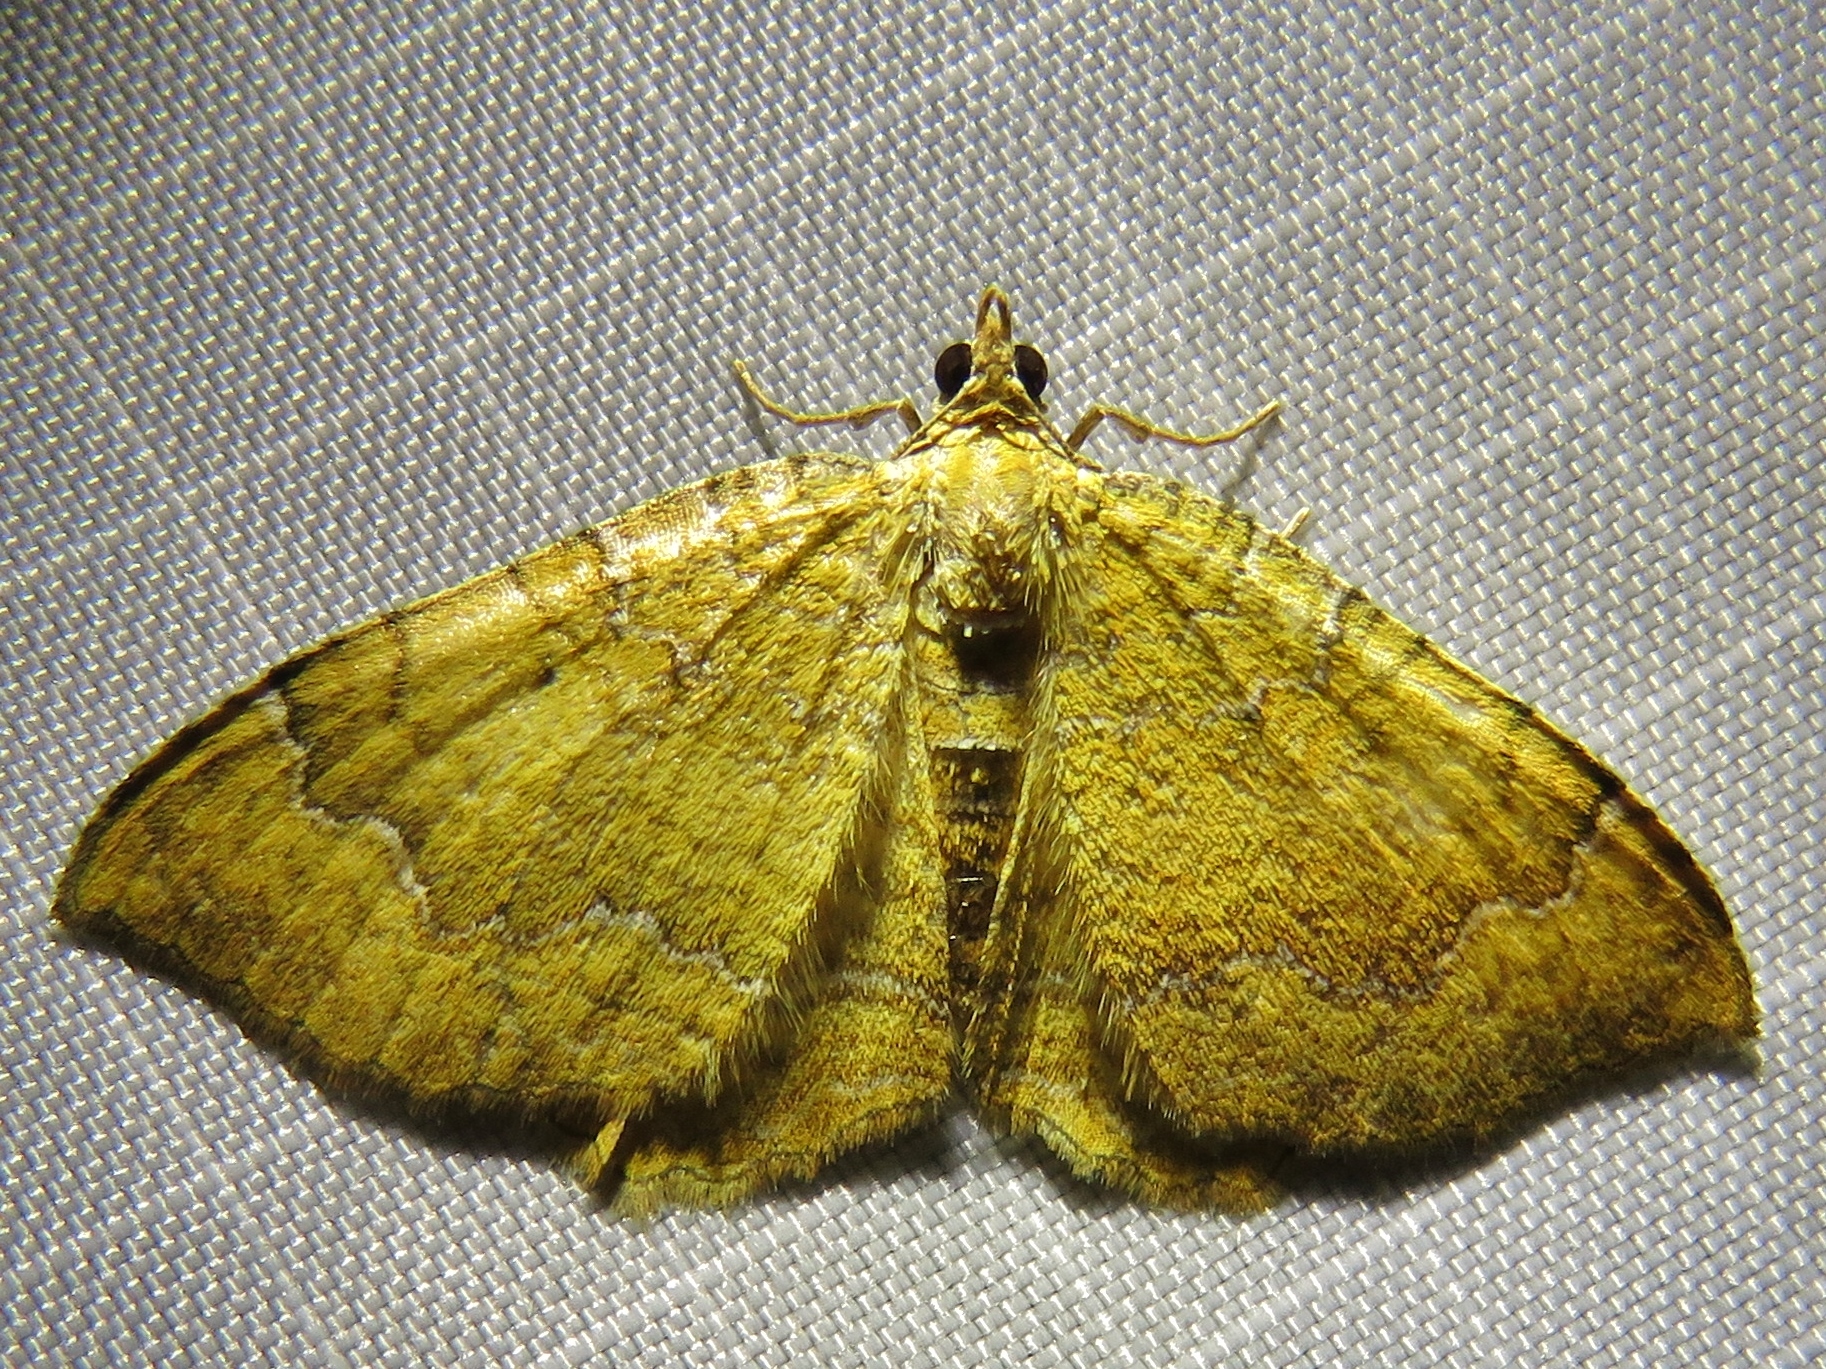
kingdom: Animalia
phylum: Arthropoda
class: Insecta
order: Lepidoptera
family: Geometridae
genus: Camptogramma
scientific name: Camptogramma bilineata
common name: Yellow shell
